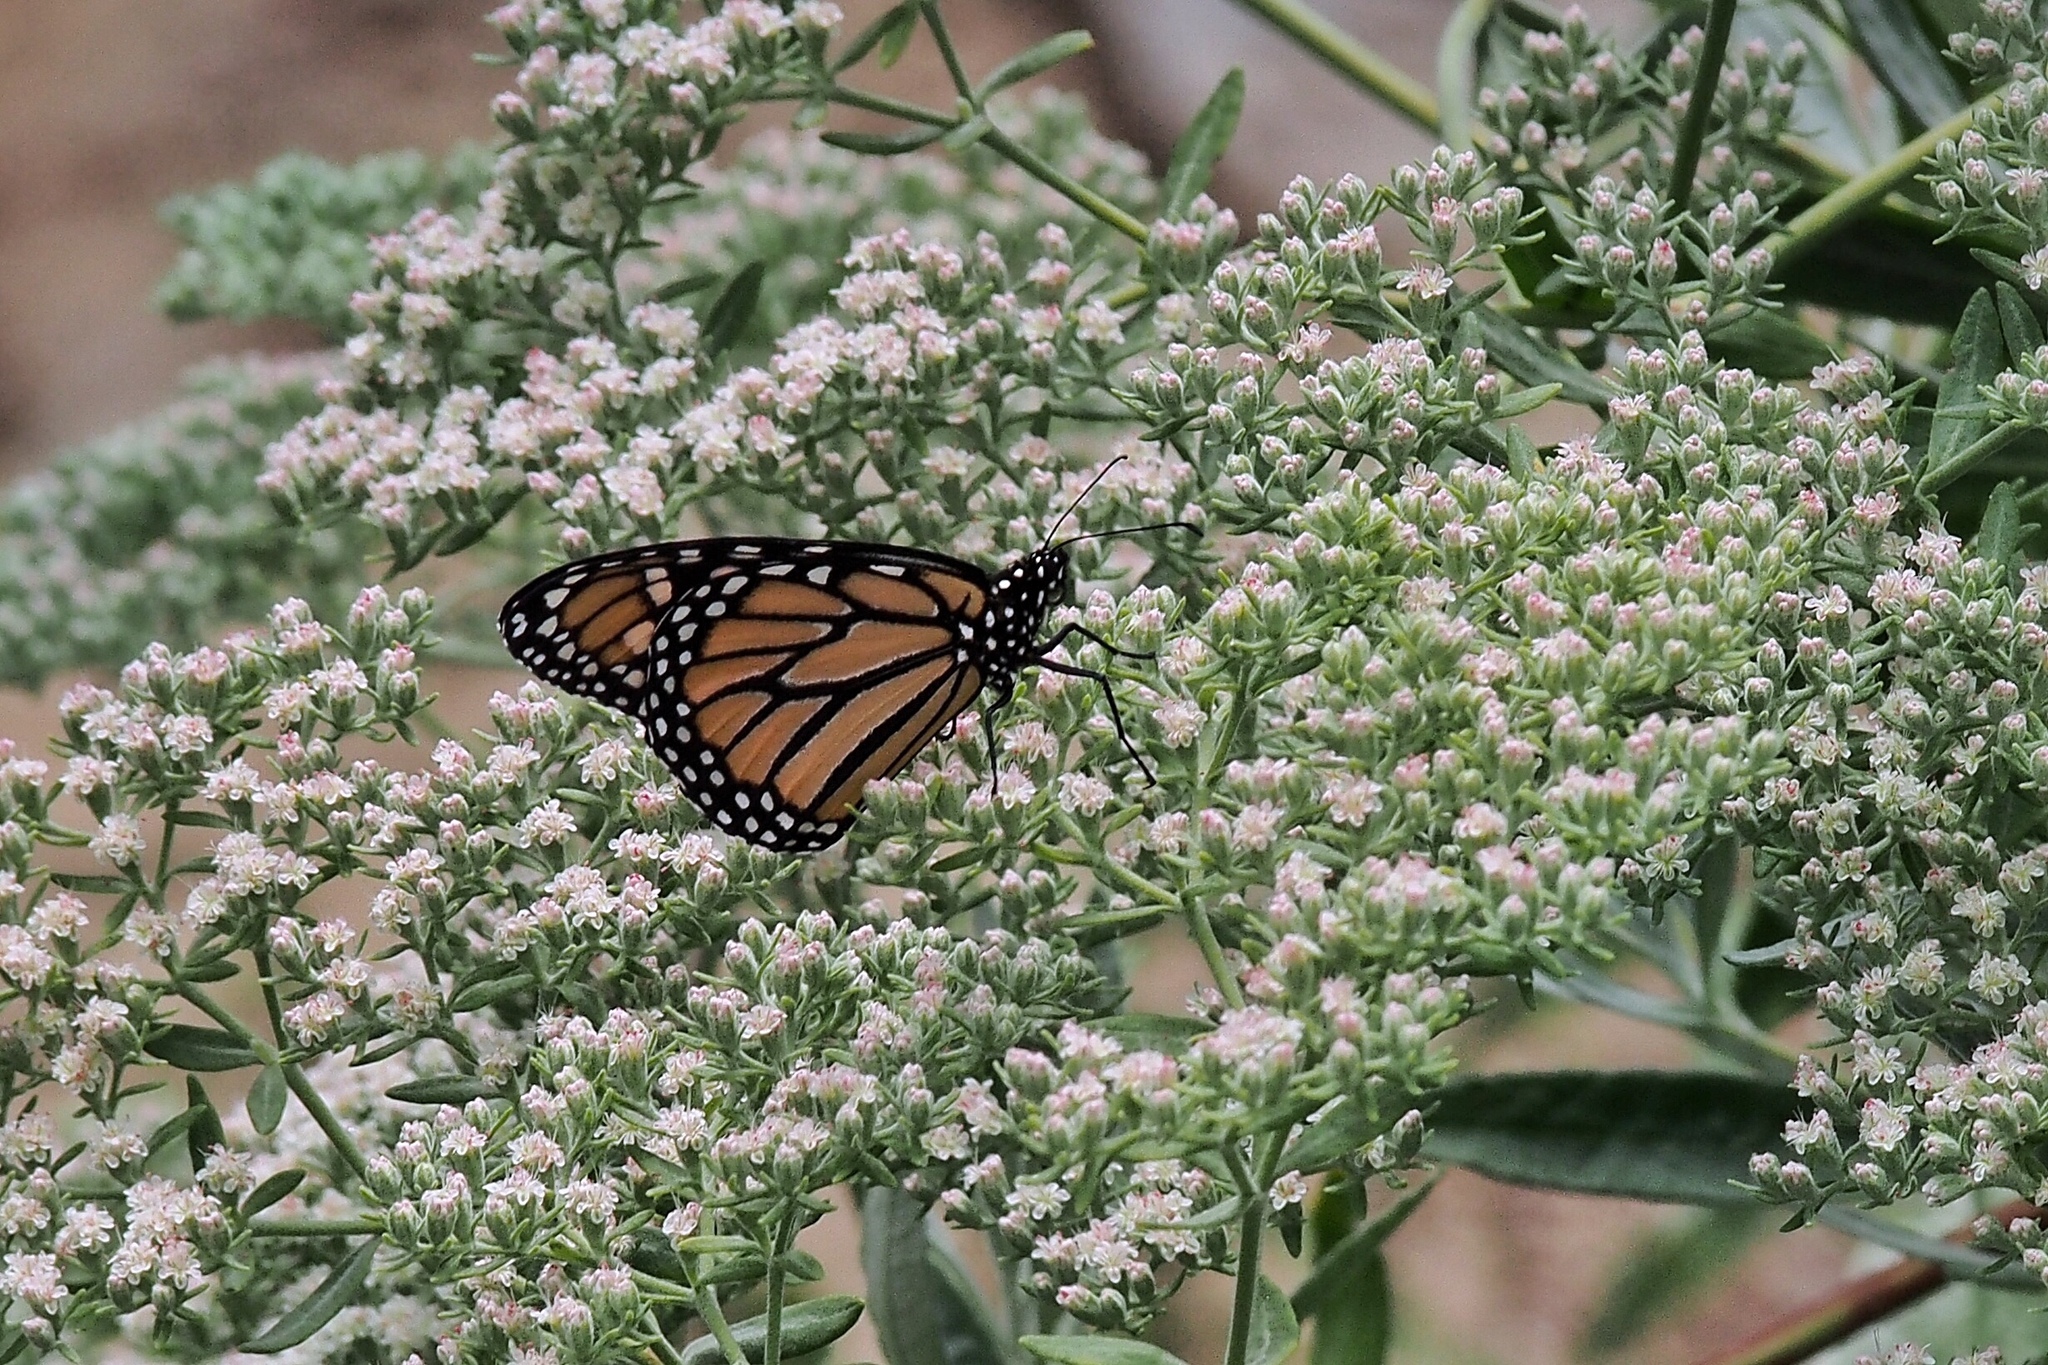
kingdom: Animalia
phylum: Arthropoda
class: Insecta
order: Lepidoptera
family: Nymphalidae
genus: Danaus
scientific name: Danaus plexippus
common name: Monarch
